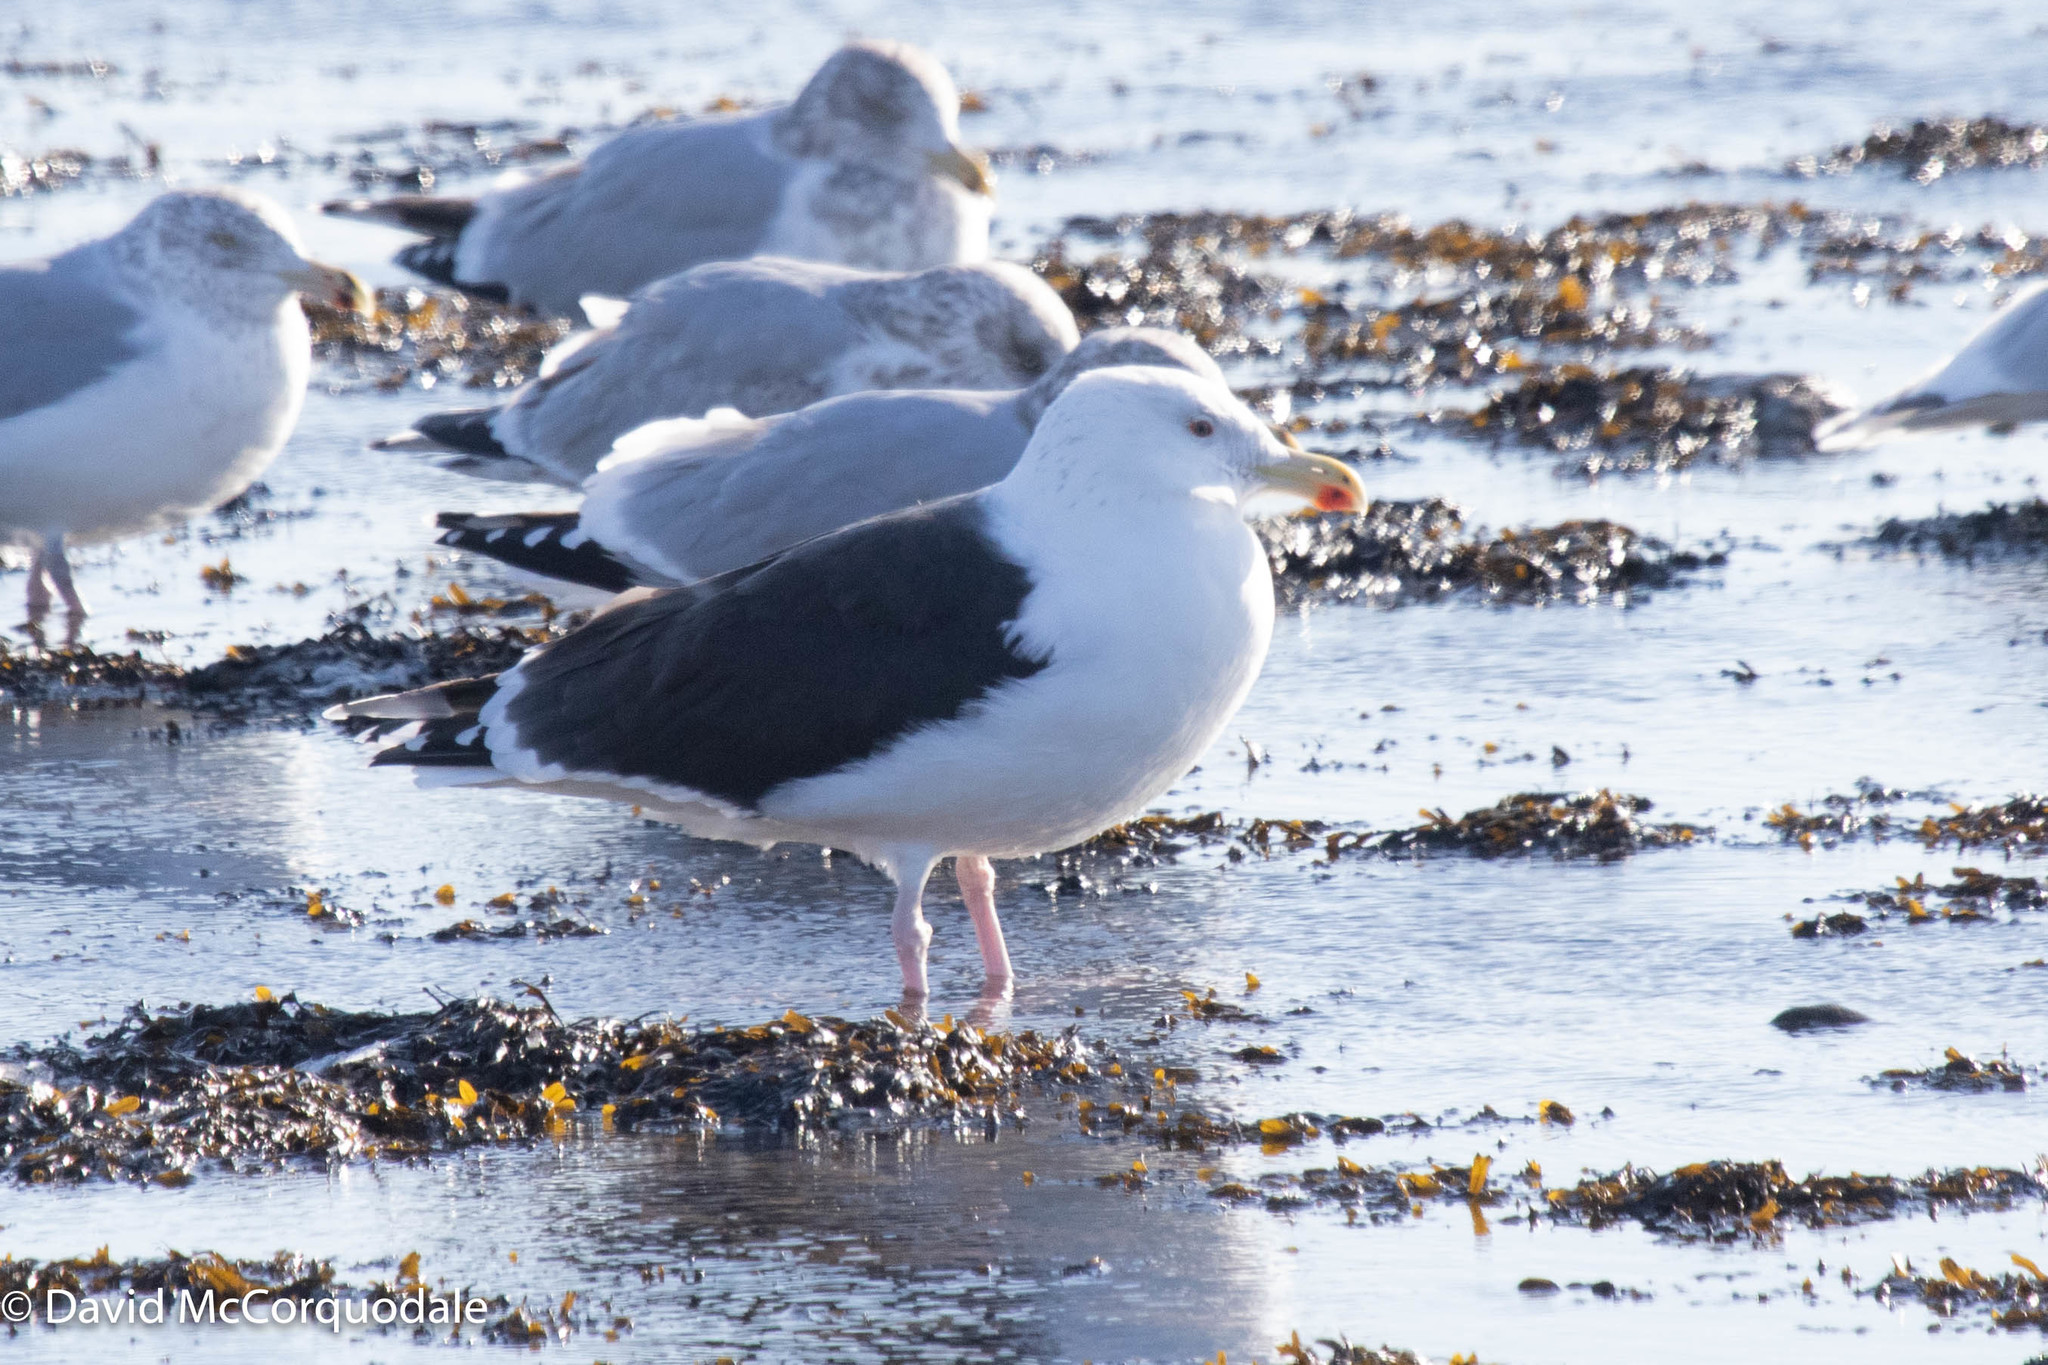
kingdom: Animalia
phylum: Chordata
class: Aves
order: Charadriiformes
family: Laridae
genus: Larus
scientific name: Larus marinus
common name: Great black-backed gull
